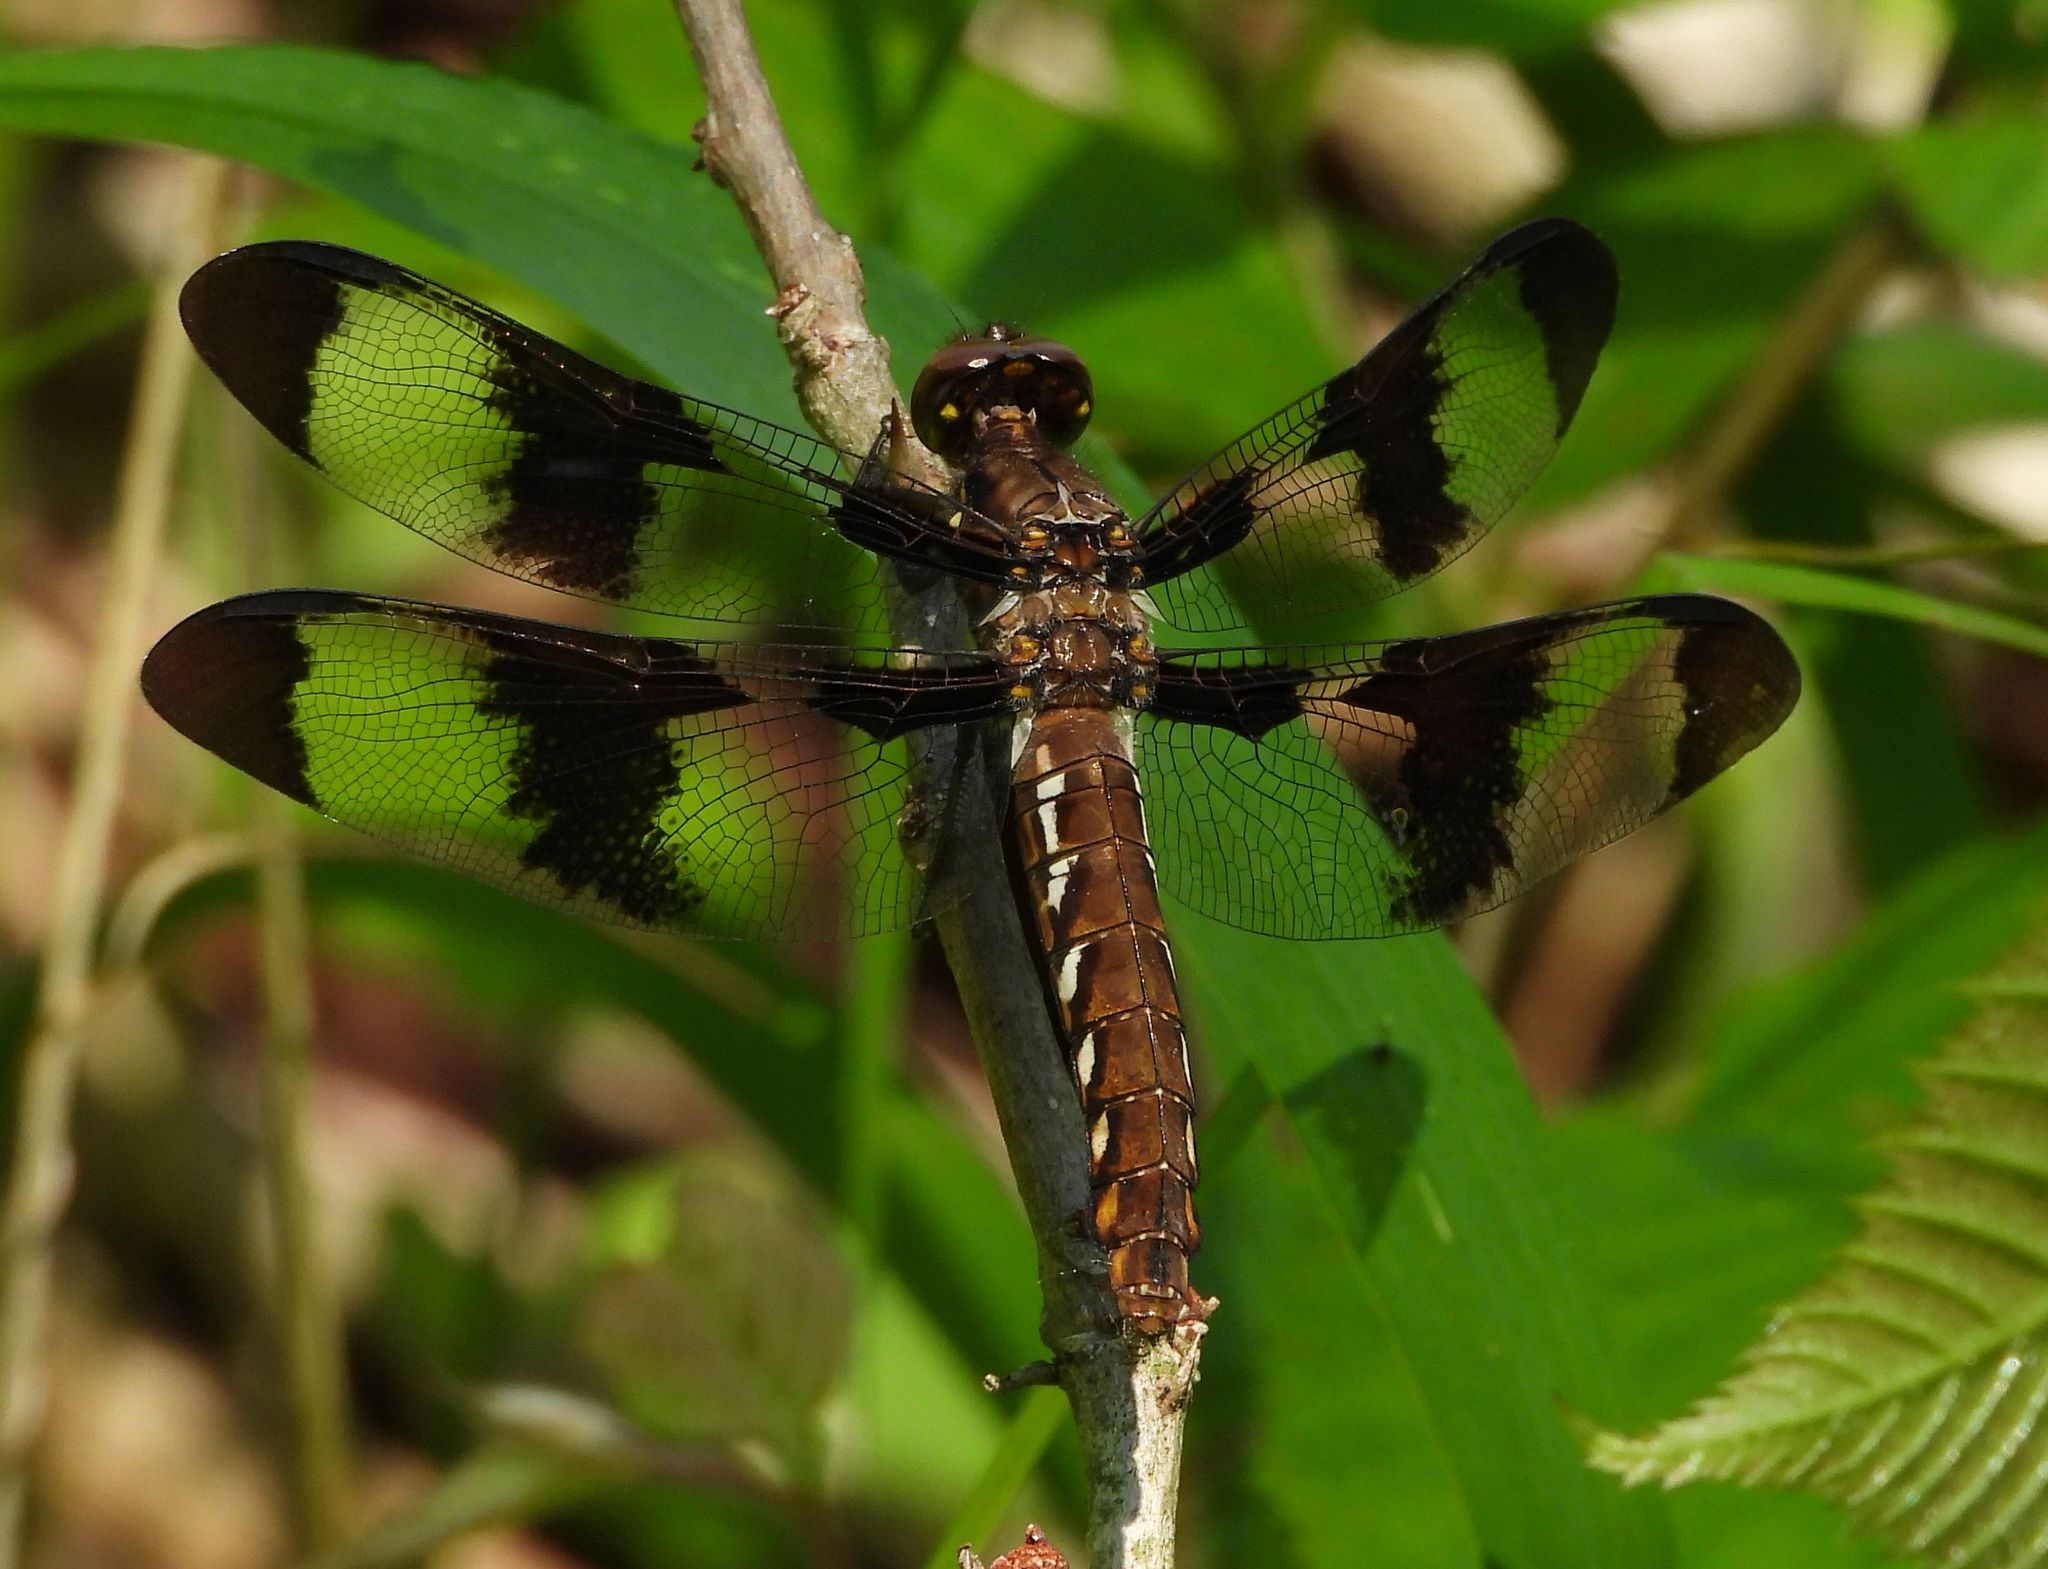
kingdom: Animalia
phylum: Arthropoda
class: Insecta
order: Odonata
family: Libellulidae
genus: Plathemis
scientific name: Plathemis lydia
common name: Common whitetail
